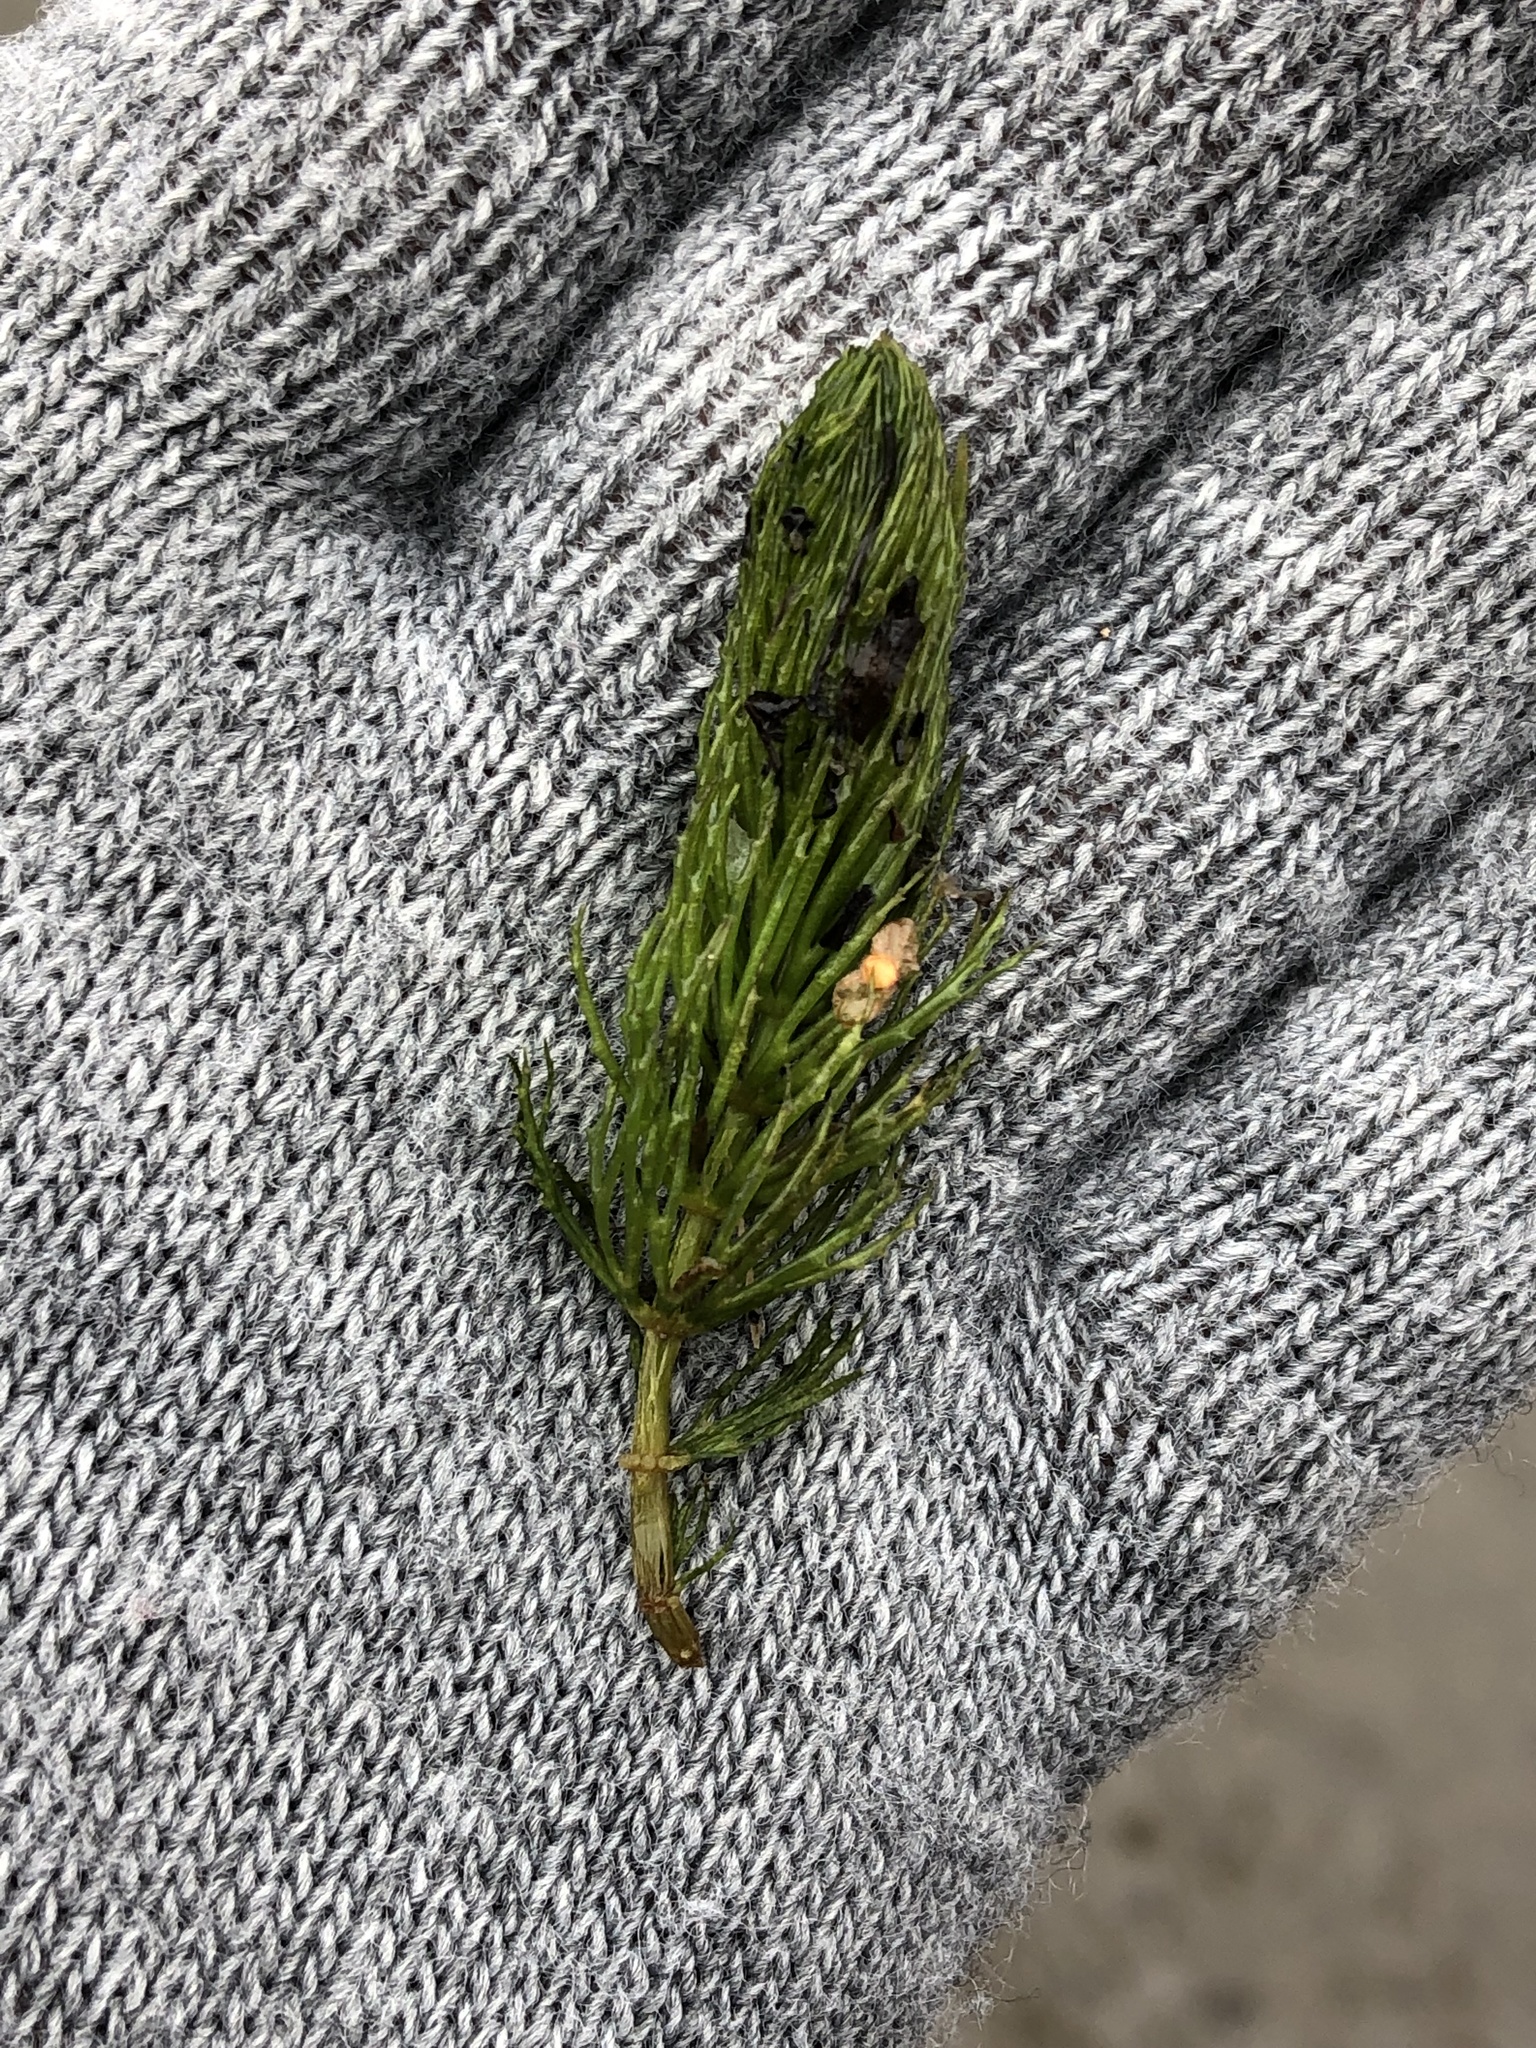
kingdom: Plantae
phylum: Tracheophyta
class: Magnoliopsida
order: Ceratophyllales
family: Ceratophyllaceae
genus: Ceratophyllum
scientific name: Ceratophyllum demersum
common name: Rigid hornwort
